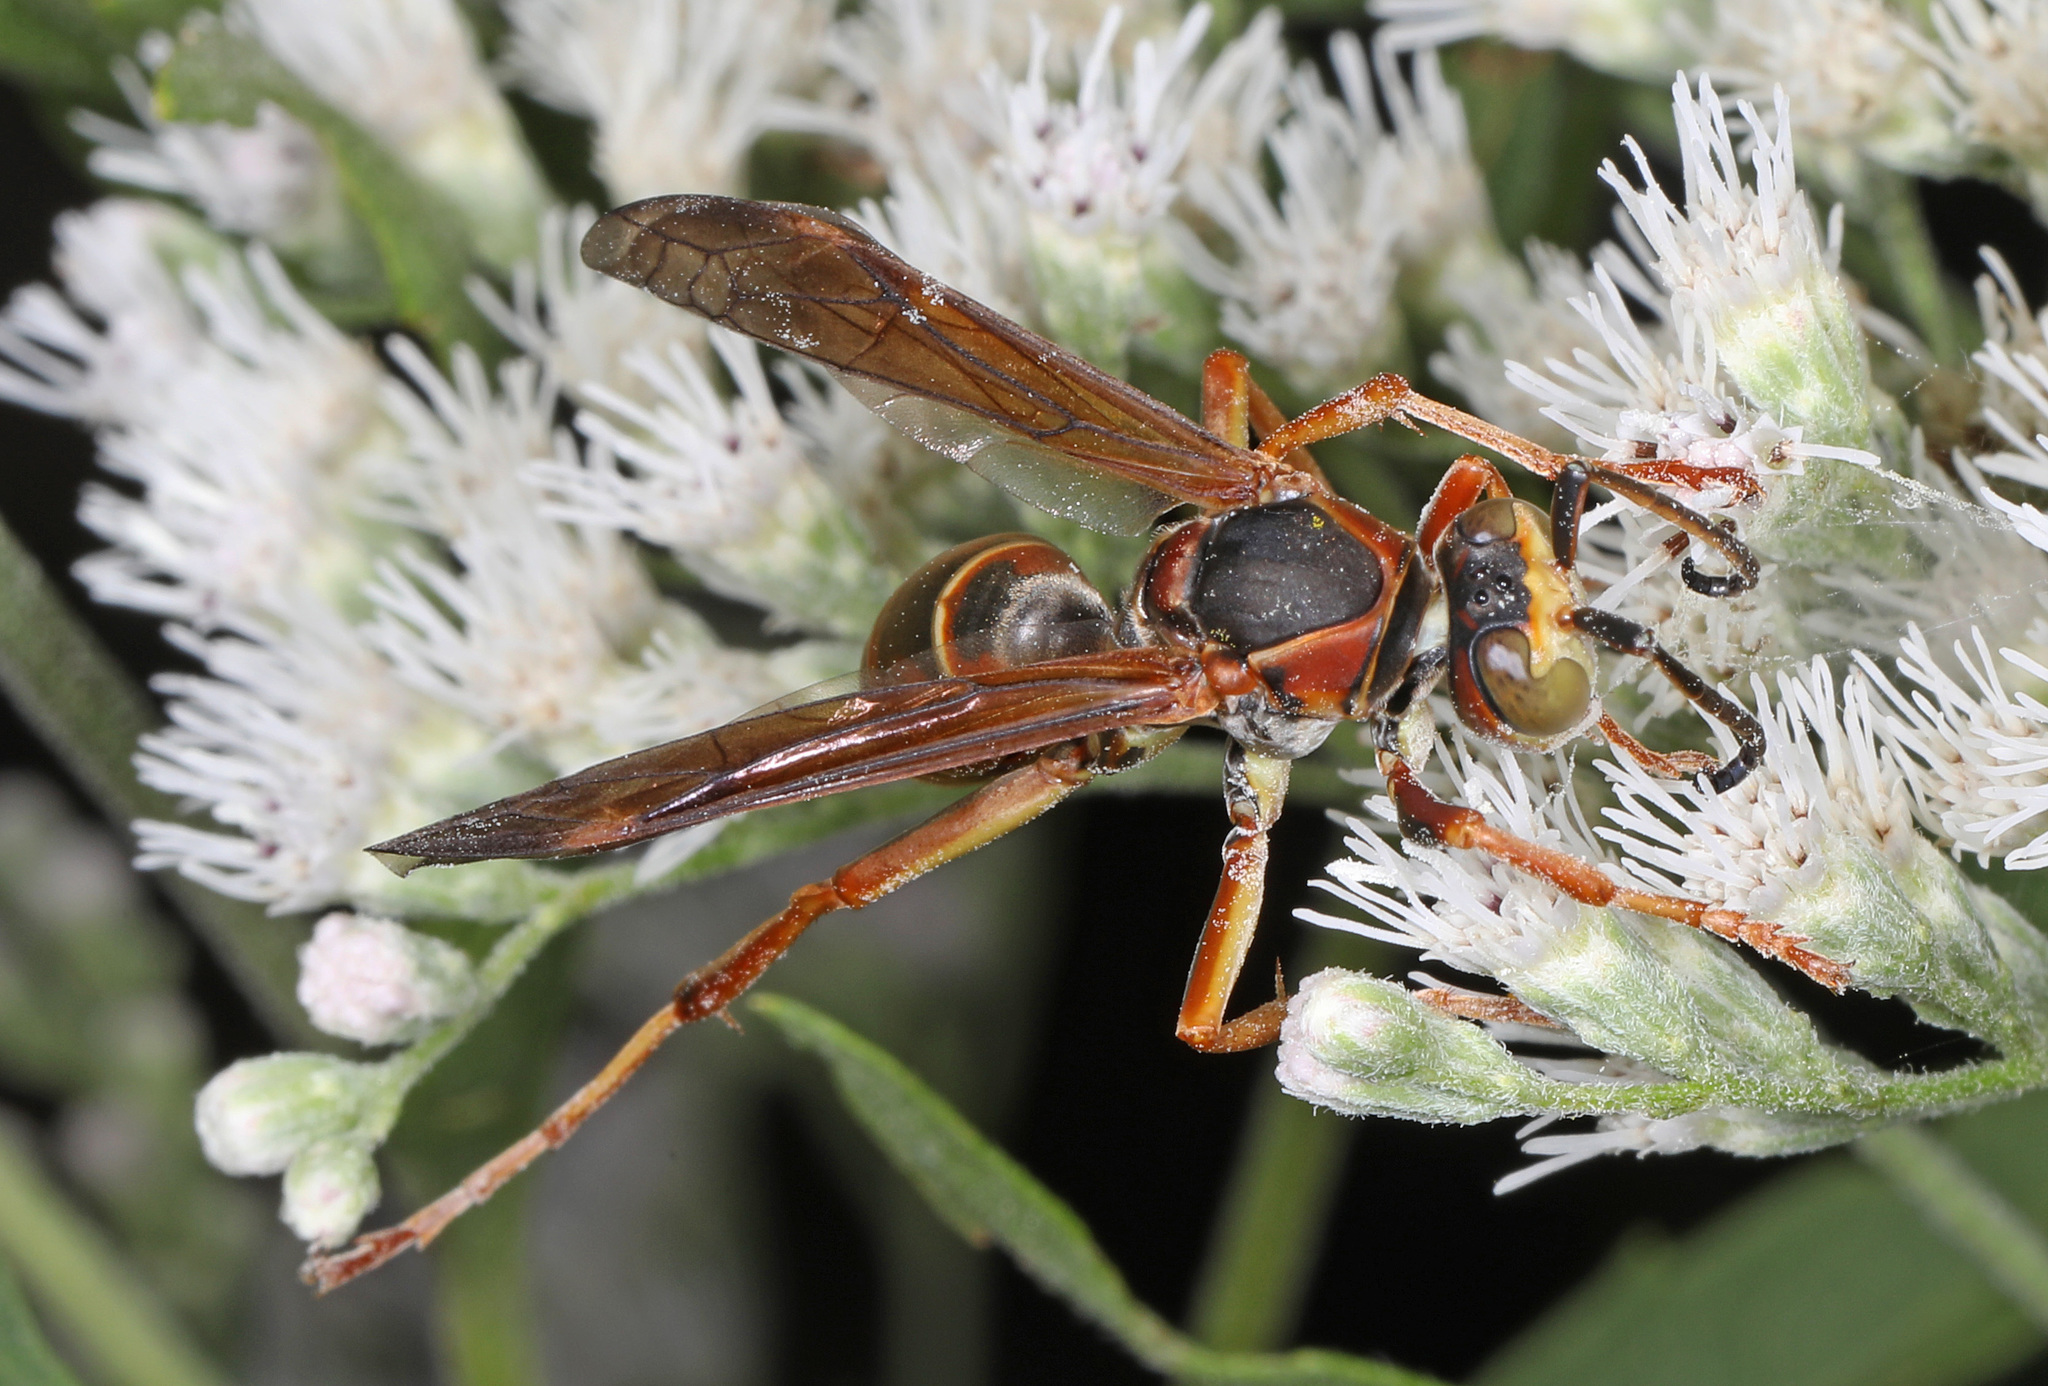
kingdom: Animalia
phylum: Arthropoda
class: Insecta
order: Hymenoptera
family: Eumenidae
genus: Polistes
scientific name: Polistes fuscatus
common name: Dark paper wasp
